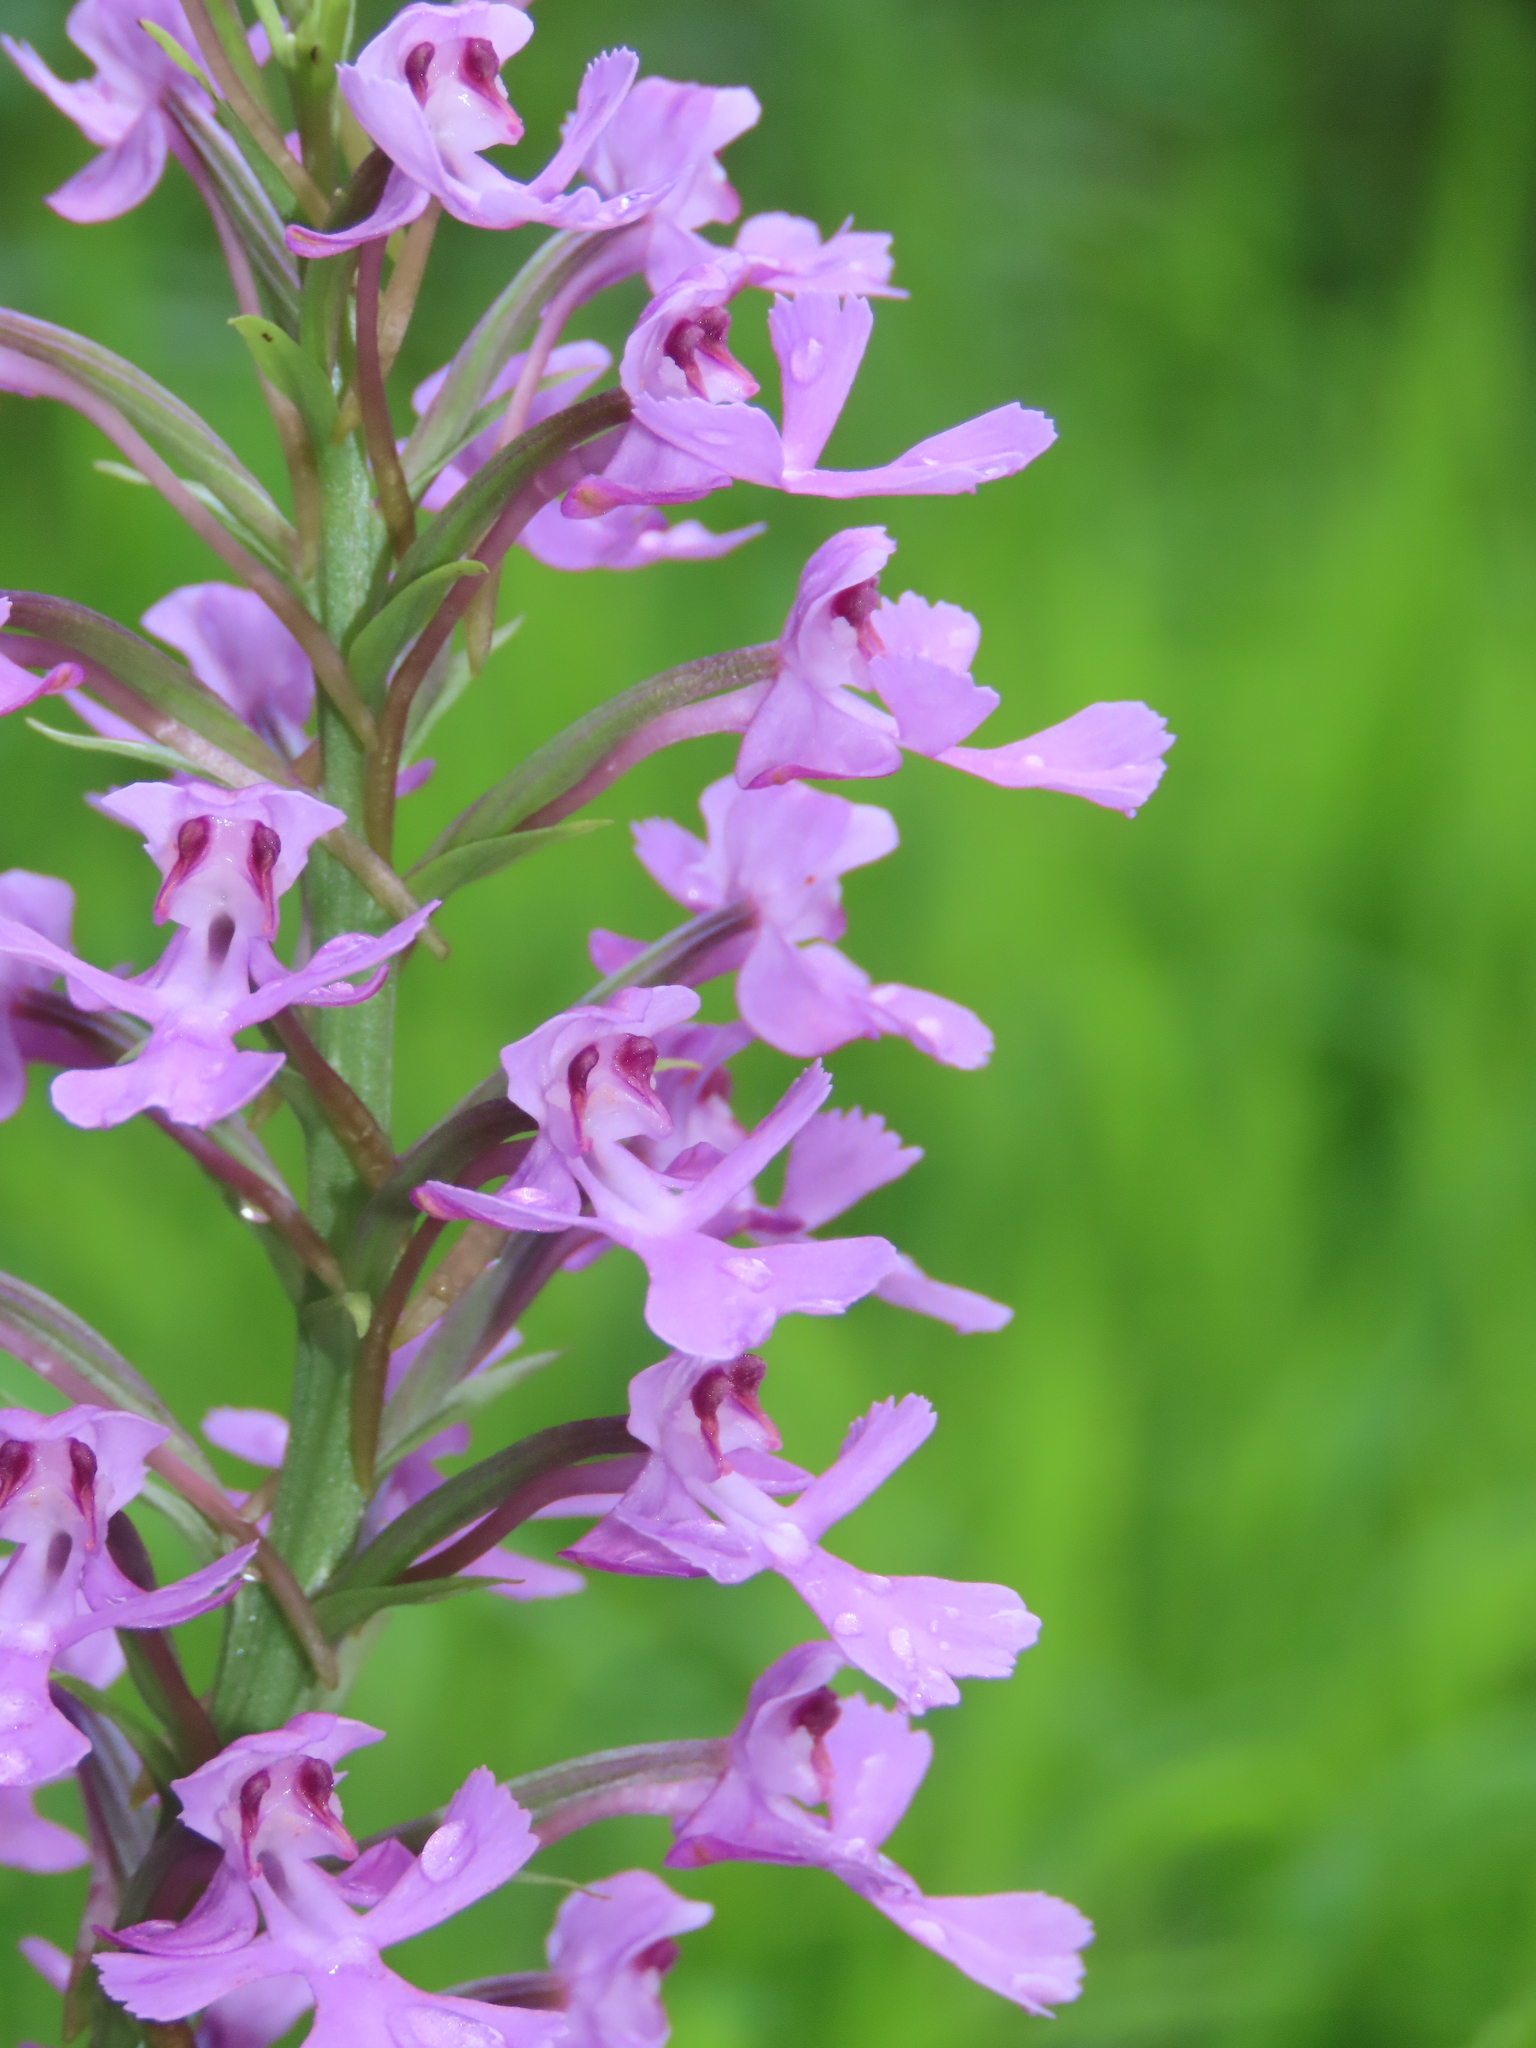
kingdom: Plantae
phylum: Tracheophyta
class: Liliopsida
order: Asparagales
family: Orchidaceae
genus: Platanthera
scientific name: Platanthera peramoena
